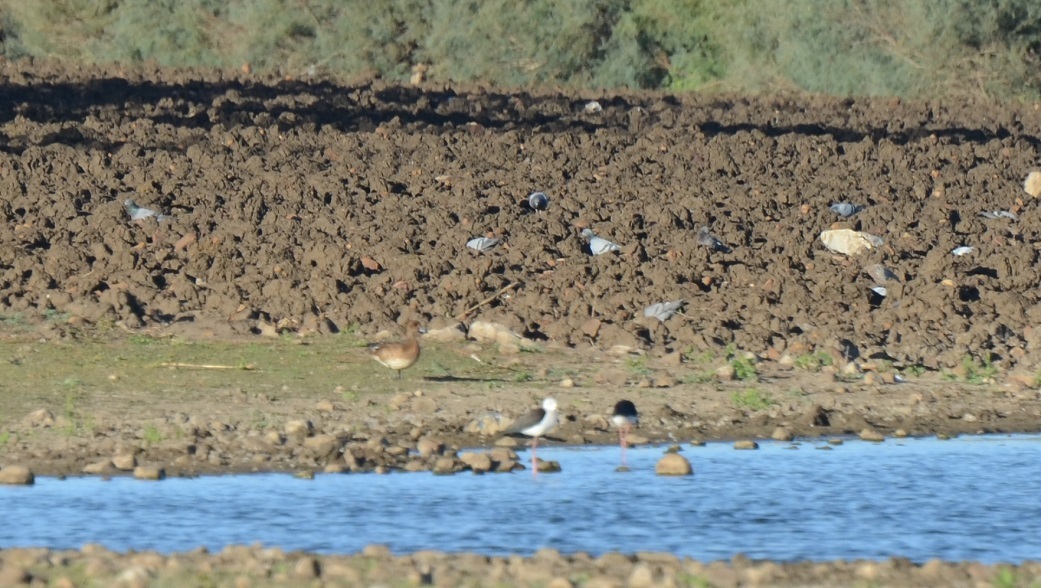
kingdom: Animalia
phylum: Chordata
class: Aves
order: Columbiformes
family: Columbidae
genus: Columba
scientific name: Columba livia
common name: Rock pigeon
